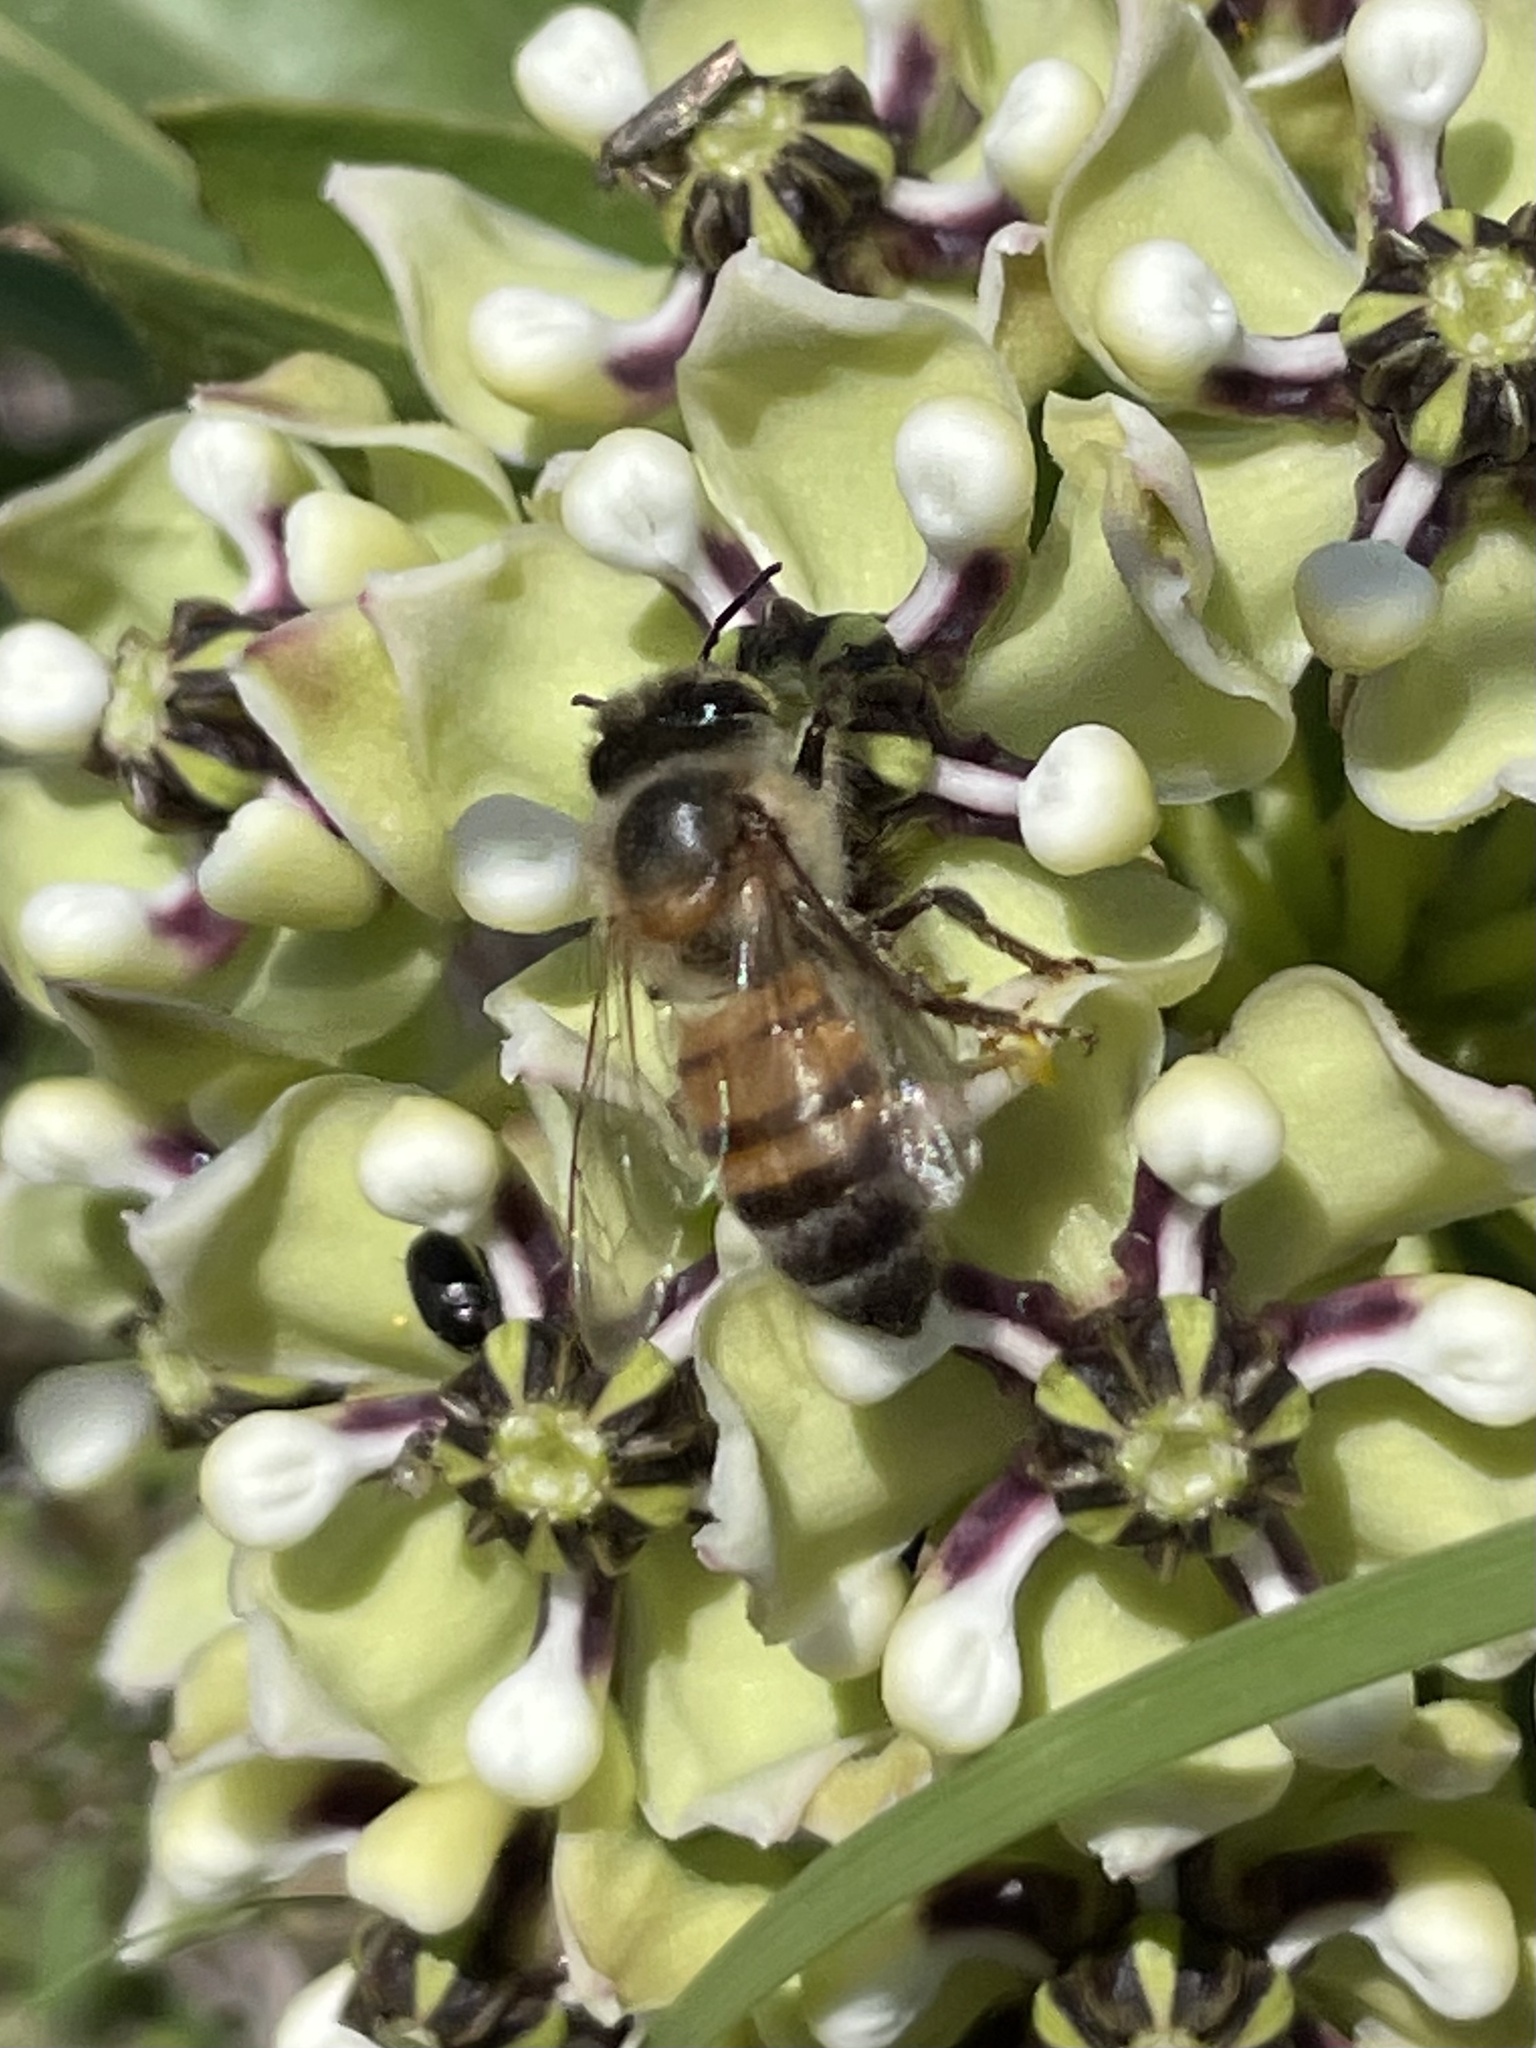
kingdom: Animalia
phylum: Arthropoda
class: Insecta
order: Hymenoptera
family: Apidae
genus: Apis
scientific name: Apis mellifera
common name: Honey bee
